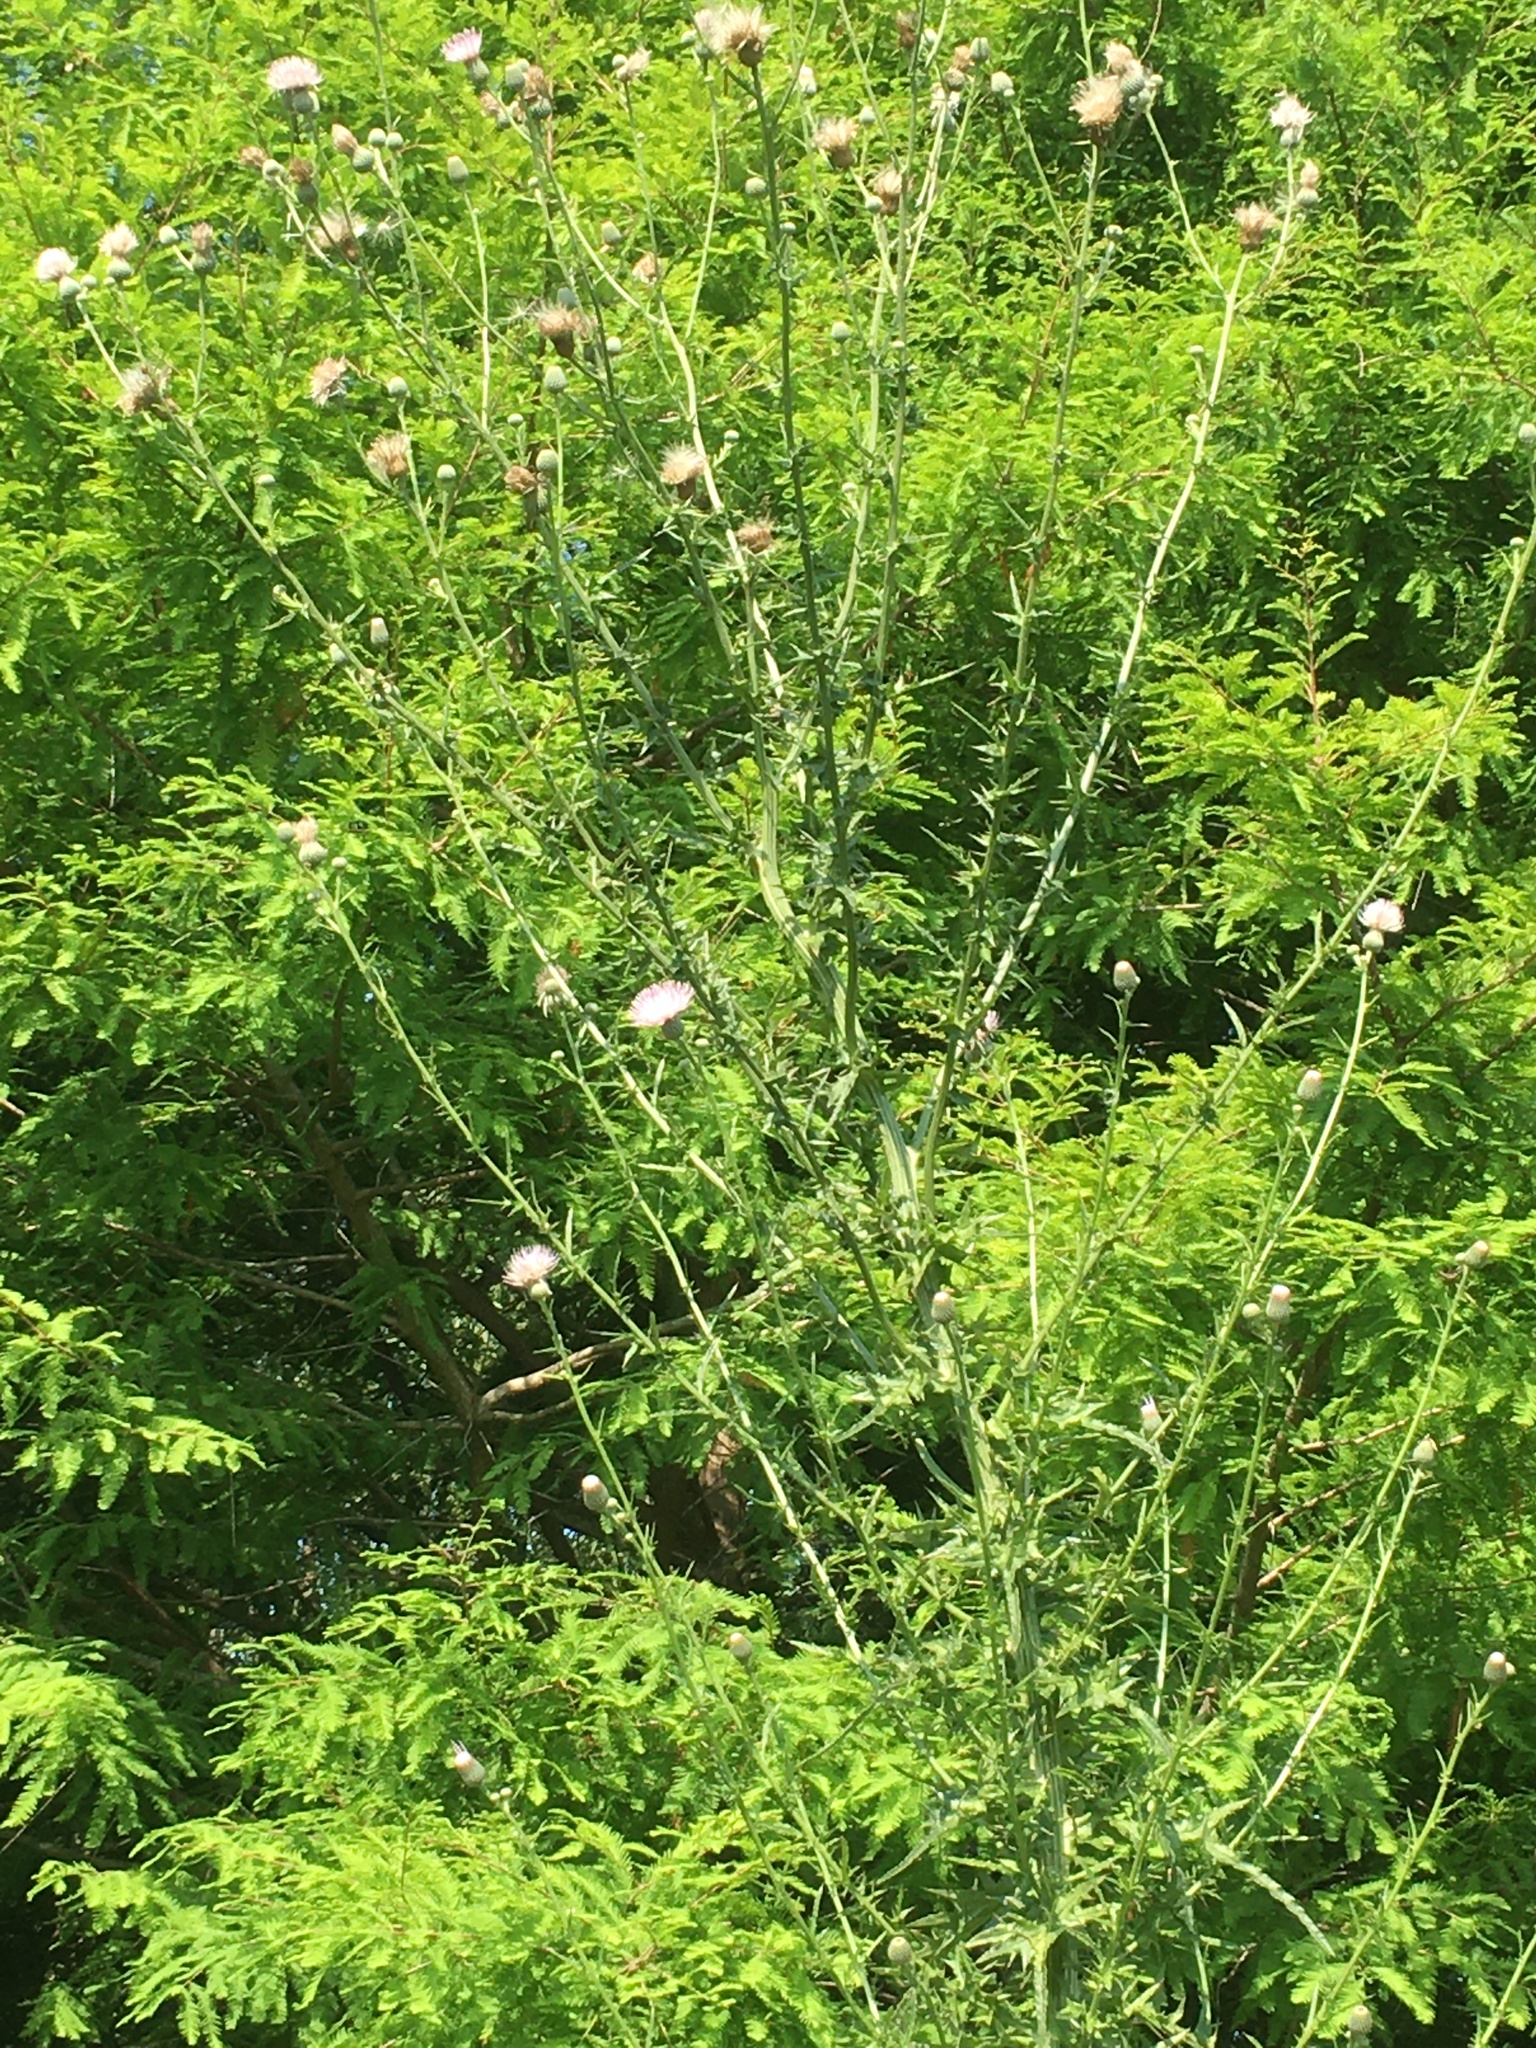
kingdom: Plantae
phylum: Tracheophyta
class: Magnoliopsida
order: Asterales
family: Asteraceae
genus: Cirsium
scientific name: Cirsium nuttalii
